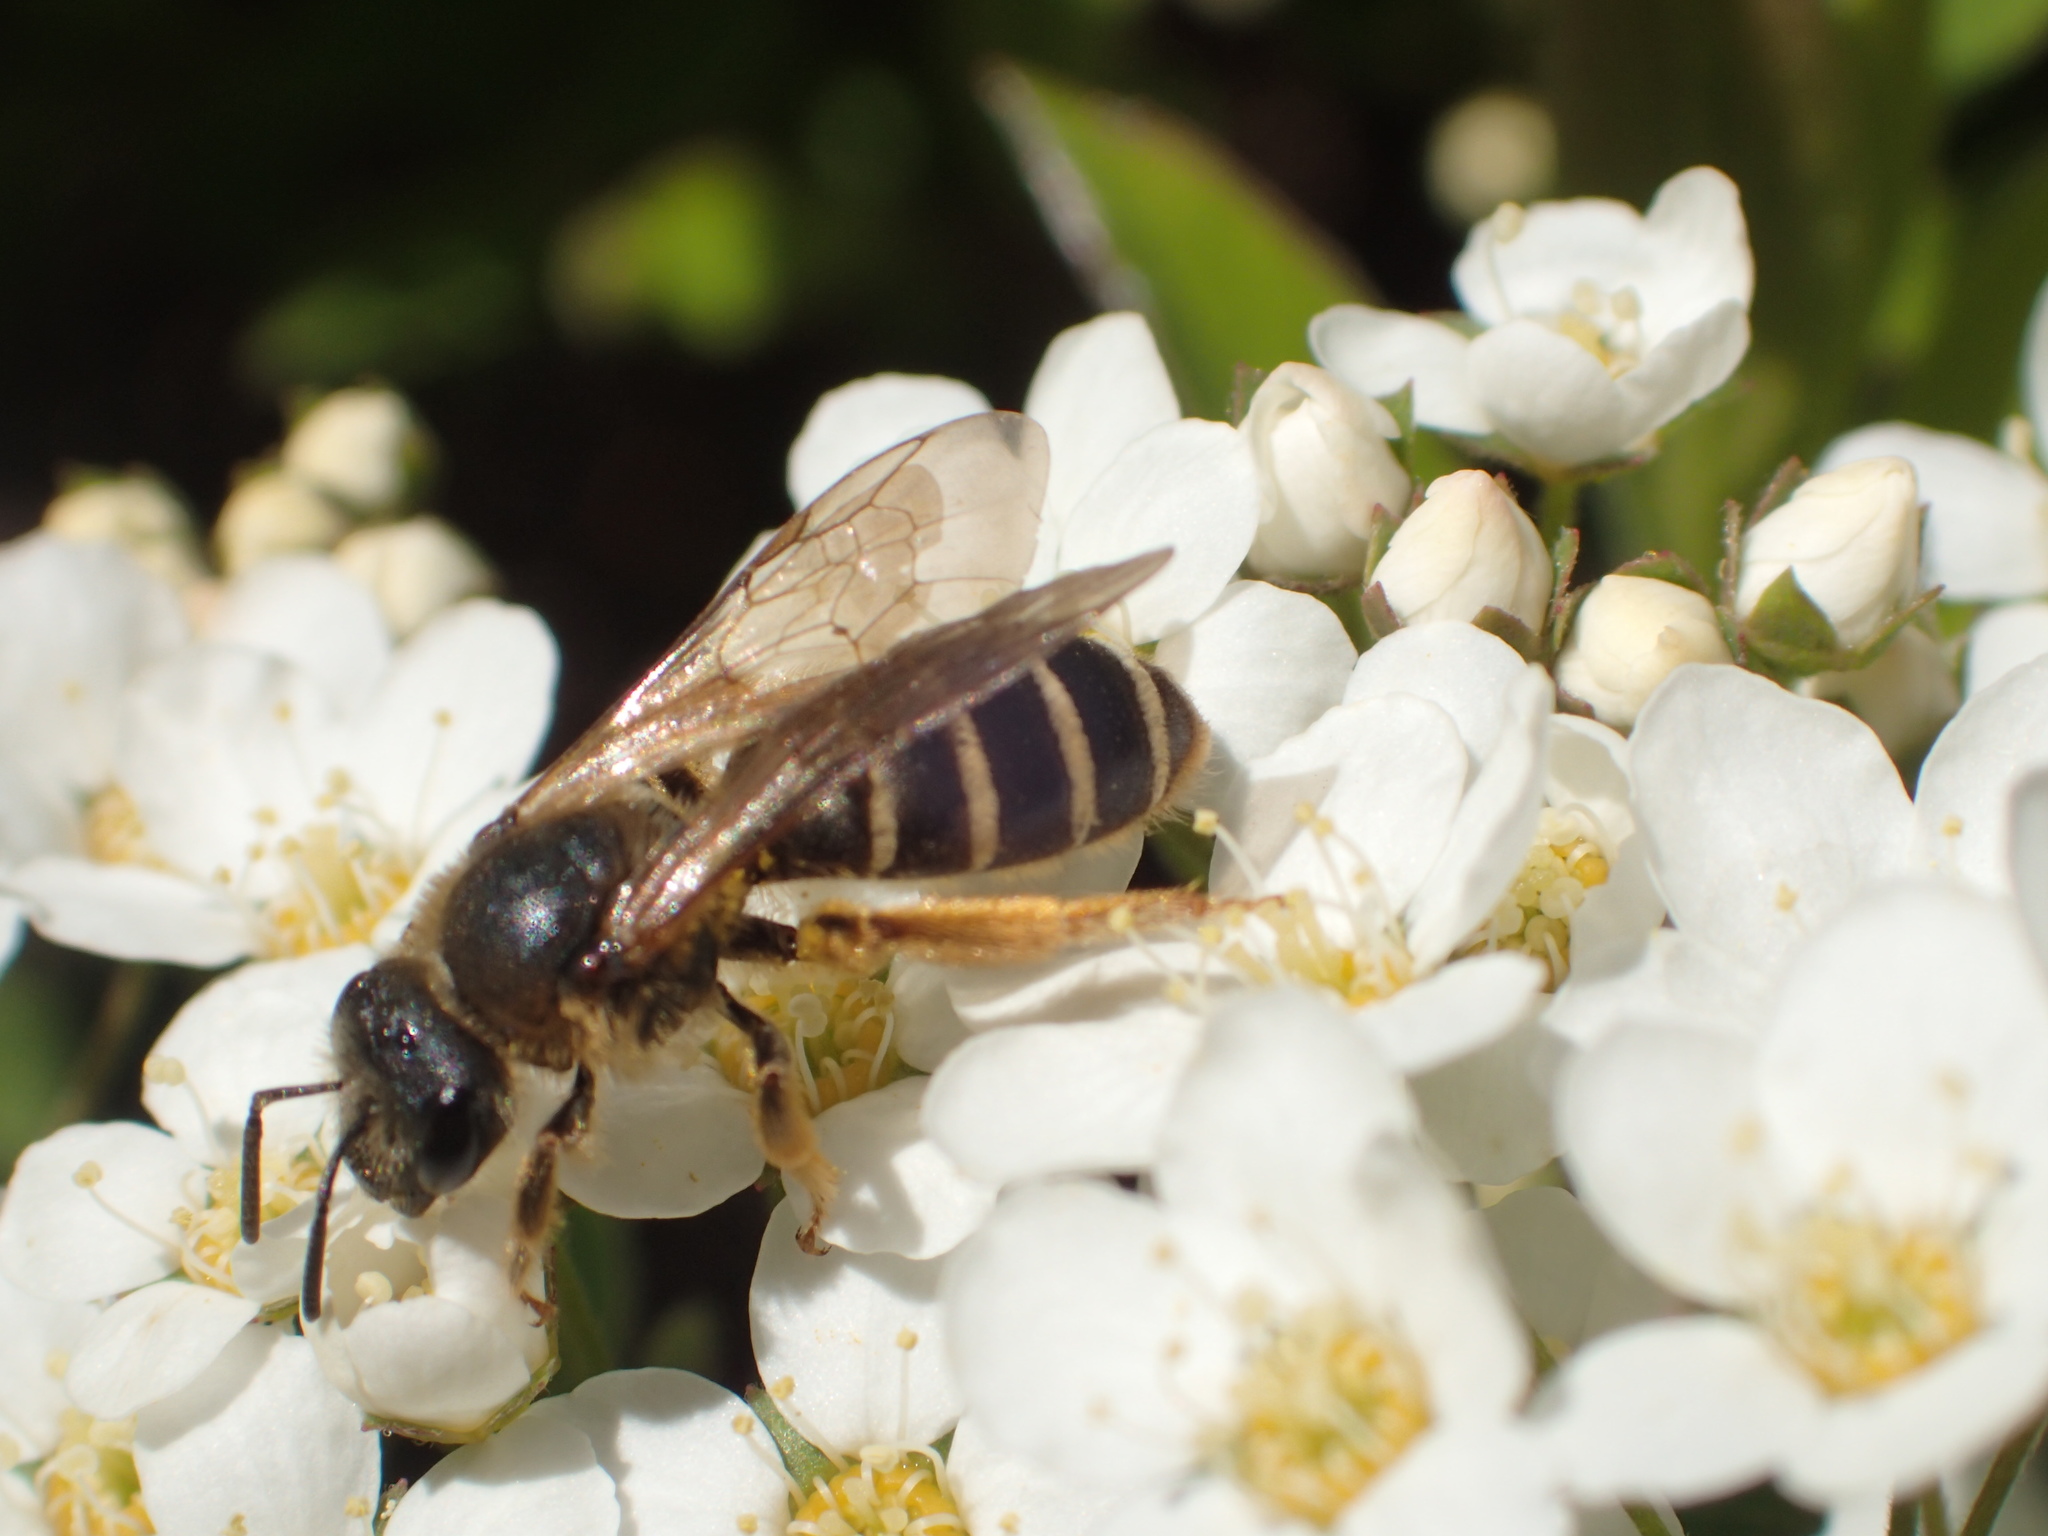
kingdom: Animalia
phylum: Arthropoda
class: Insecta
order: Hymenoptera
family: Halictidae
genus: Halictus
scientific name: Halictus rubicundus
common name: Orange-legged furrow bee
